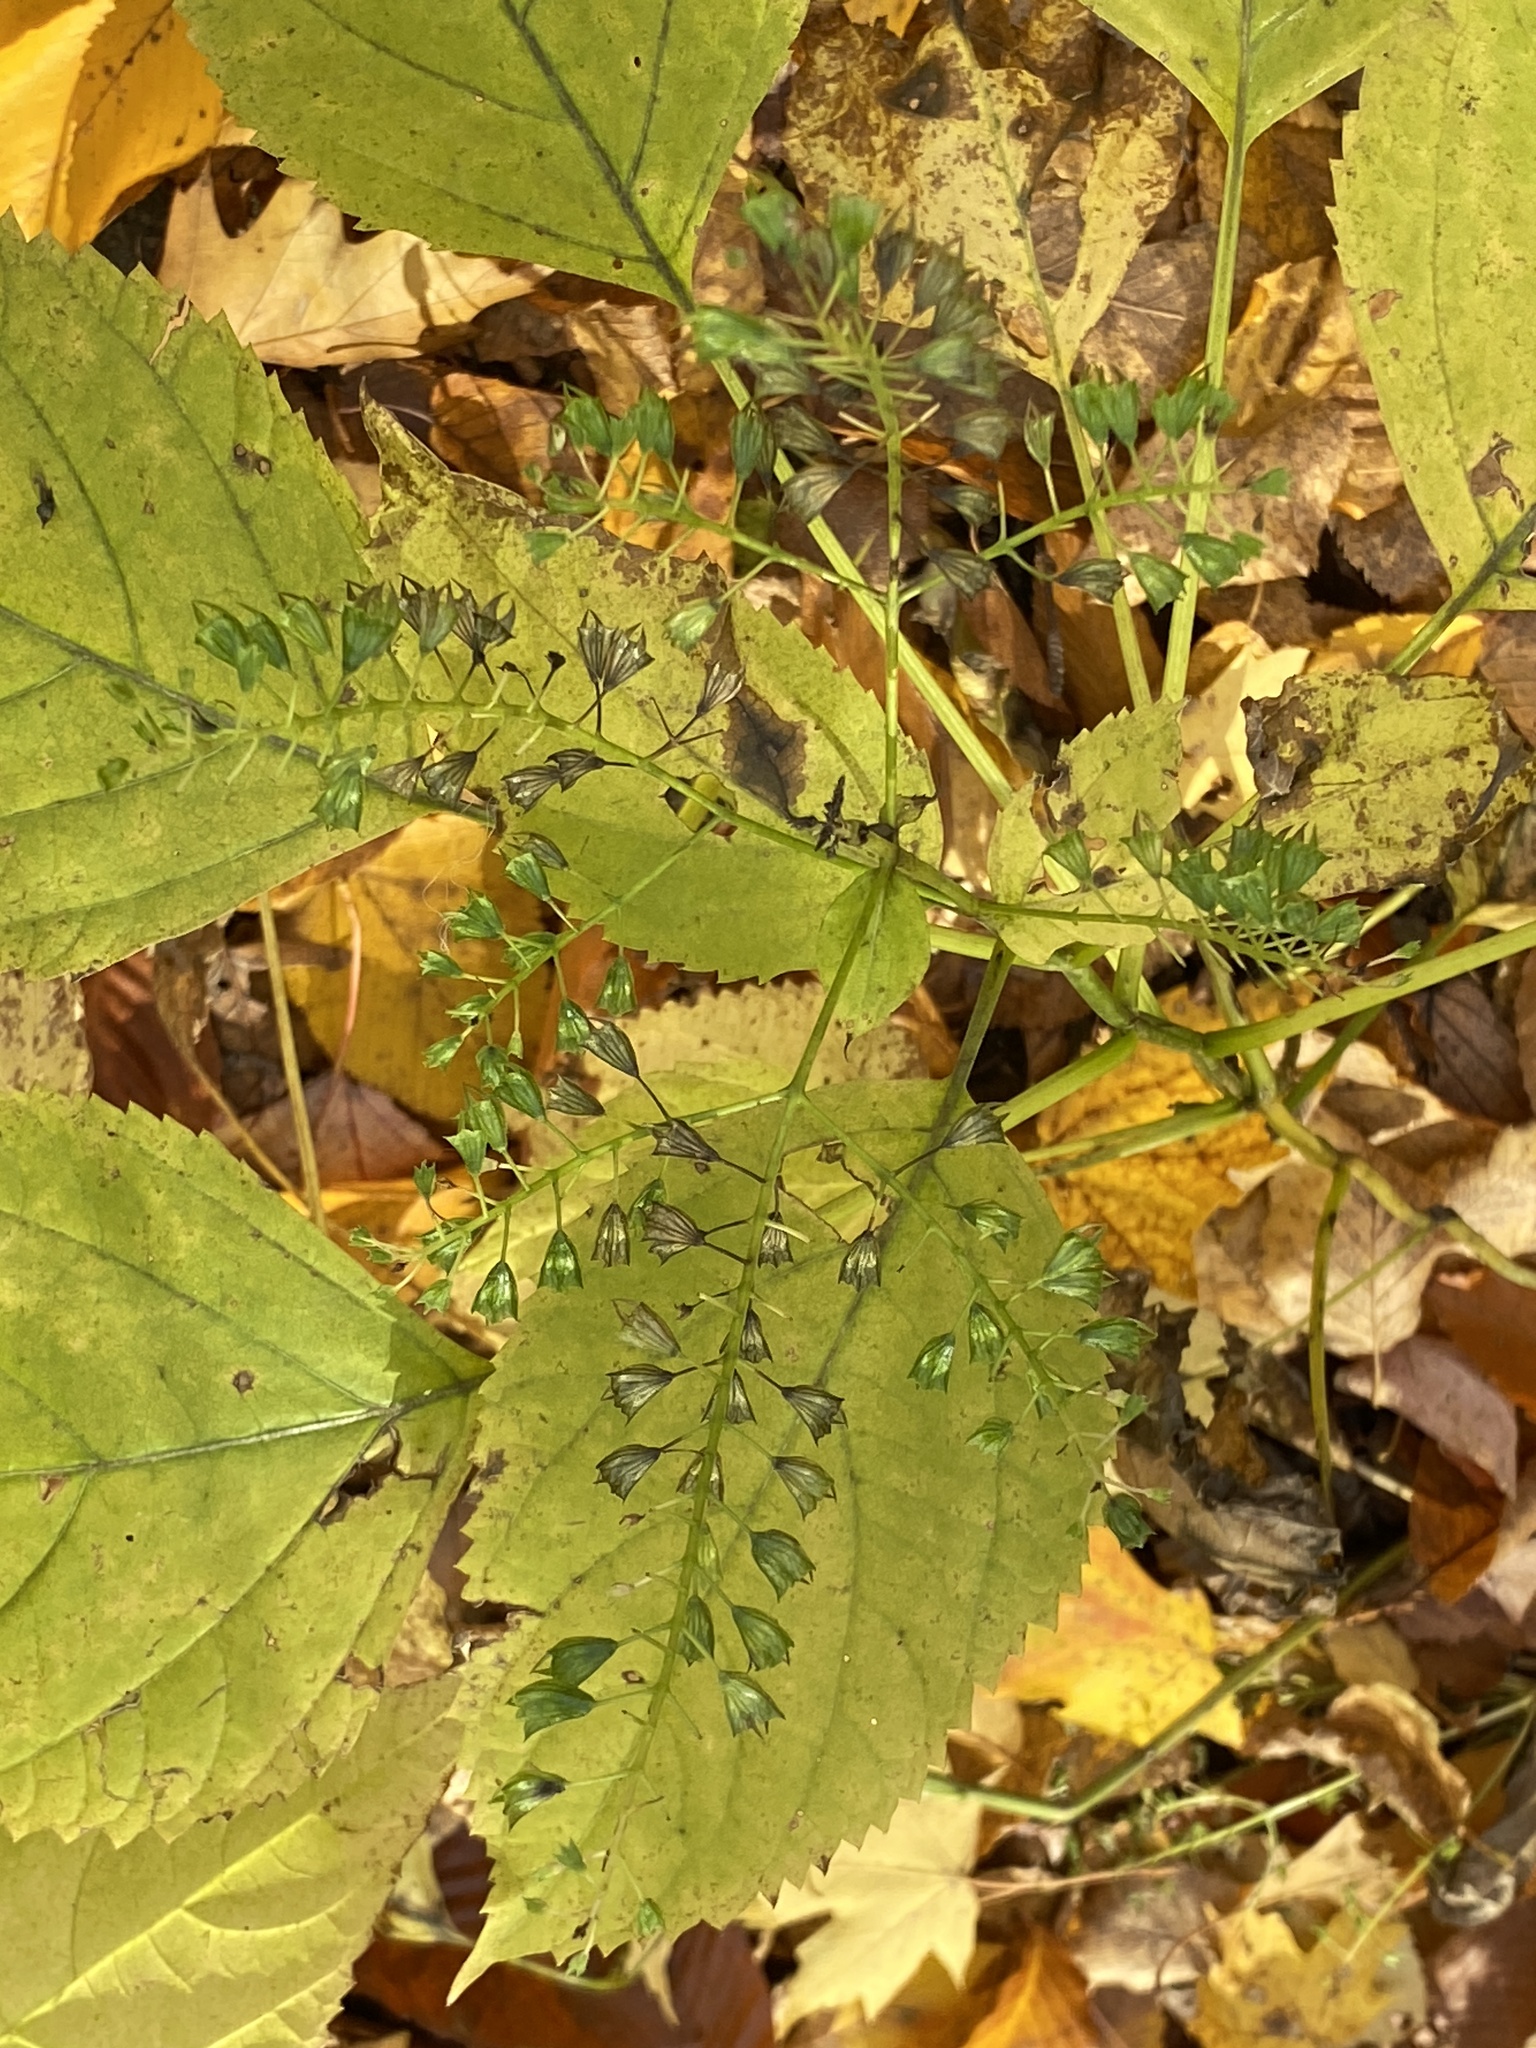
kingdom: Plantae
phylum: Tracheophyta
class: Magnoliopsida
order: Lamiales
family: Lamiaceae
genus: Collinsonia
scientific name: Collinsonia canadensis
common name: Northern horsebalm
